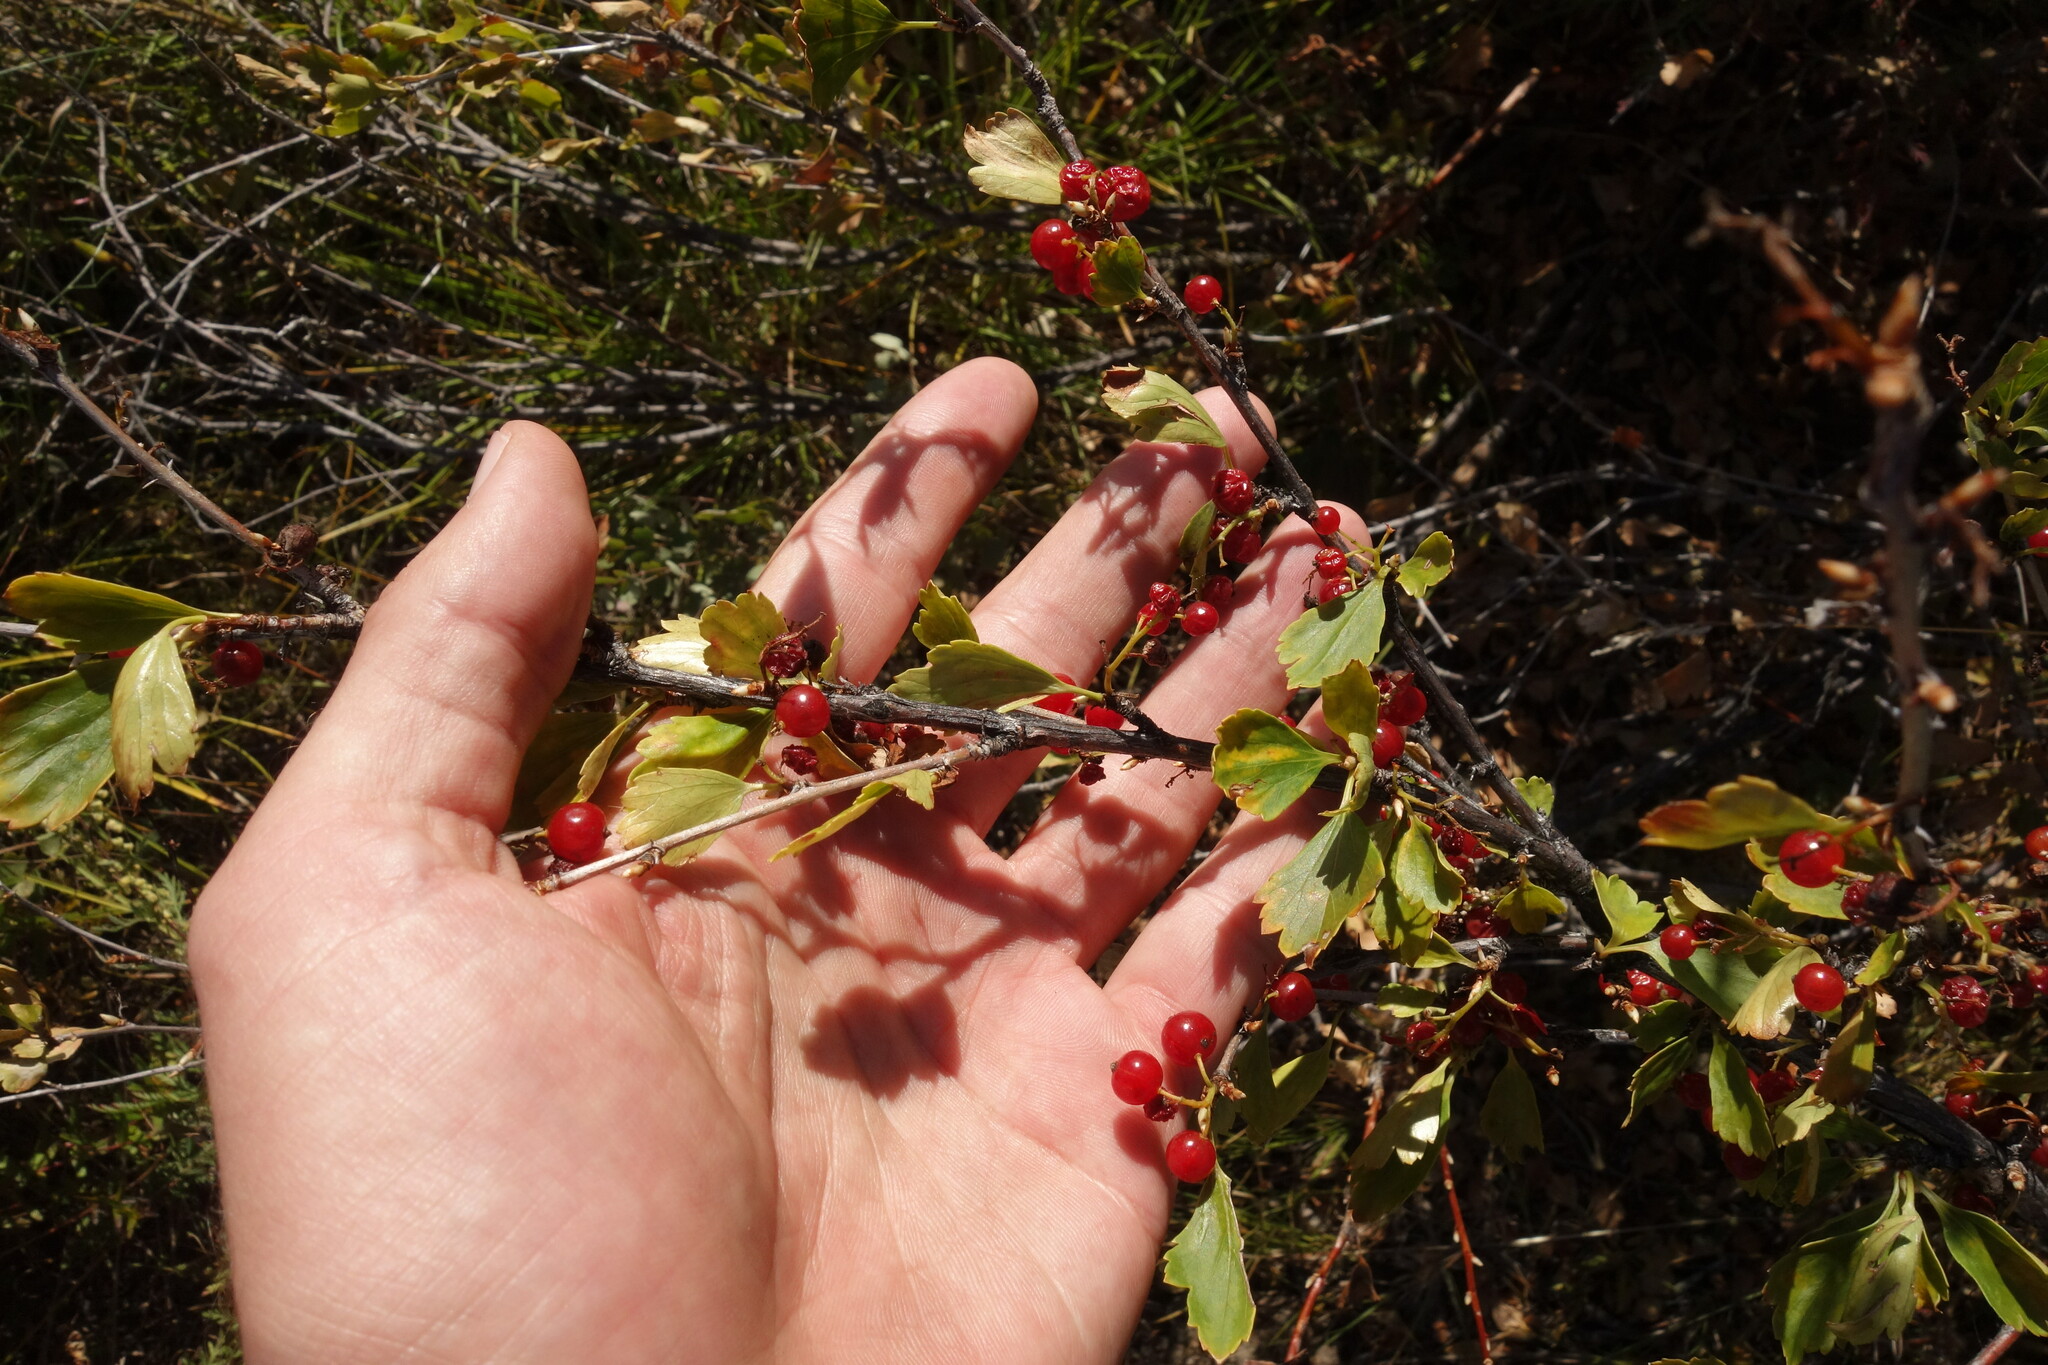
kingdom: Plantae
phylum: Tracheophyta
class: Magnoliopsida
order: Saxifragales
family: Grossulariaceae
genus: Ribes
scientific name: Ribes diacanthum
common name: Siberian currant
